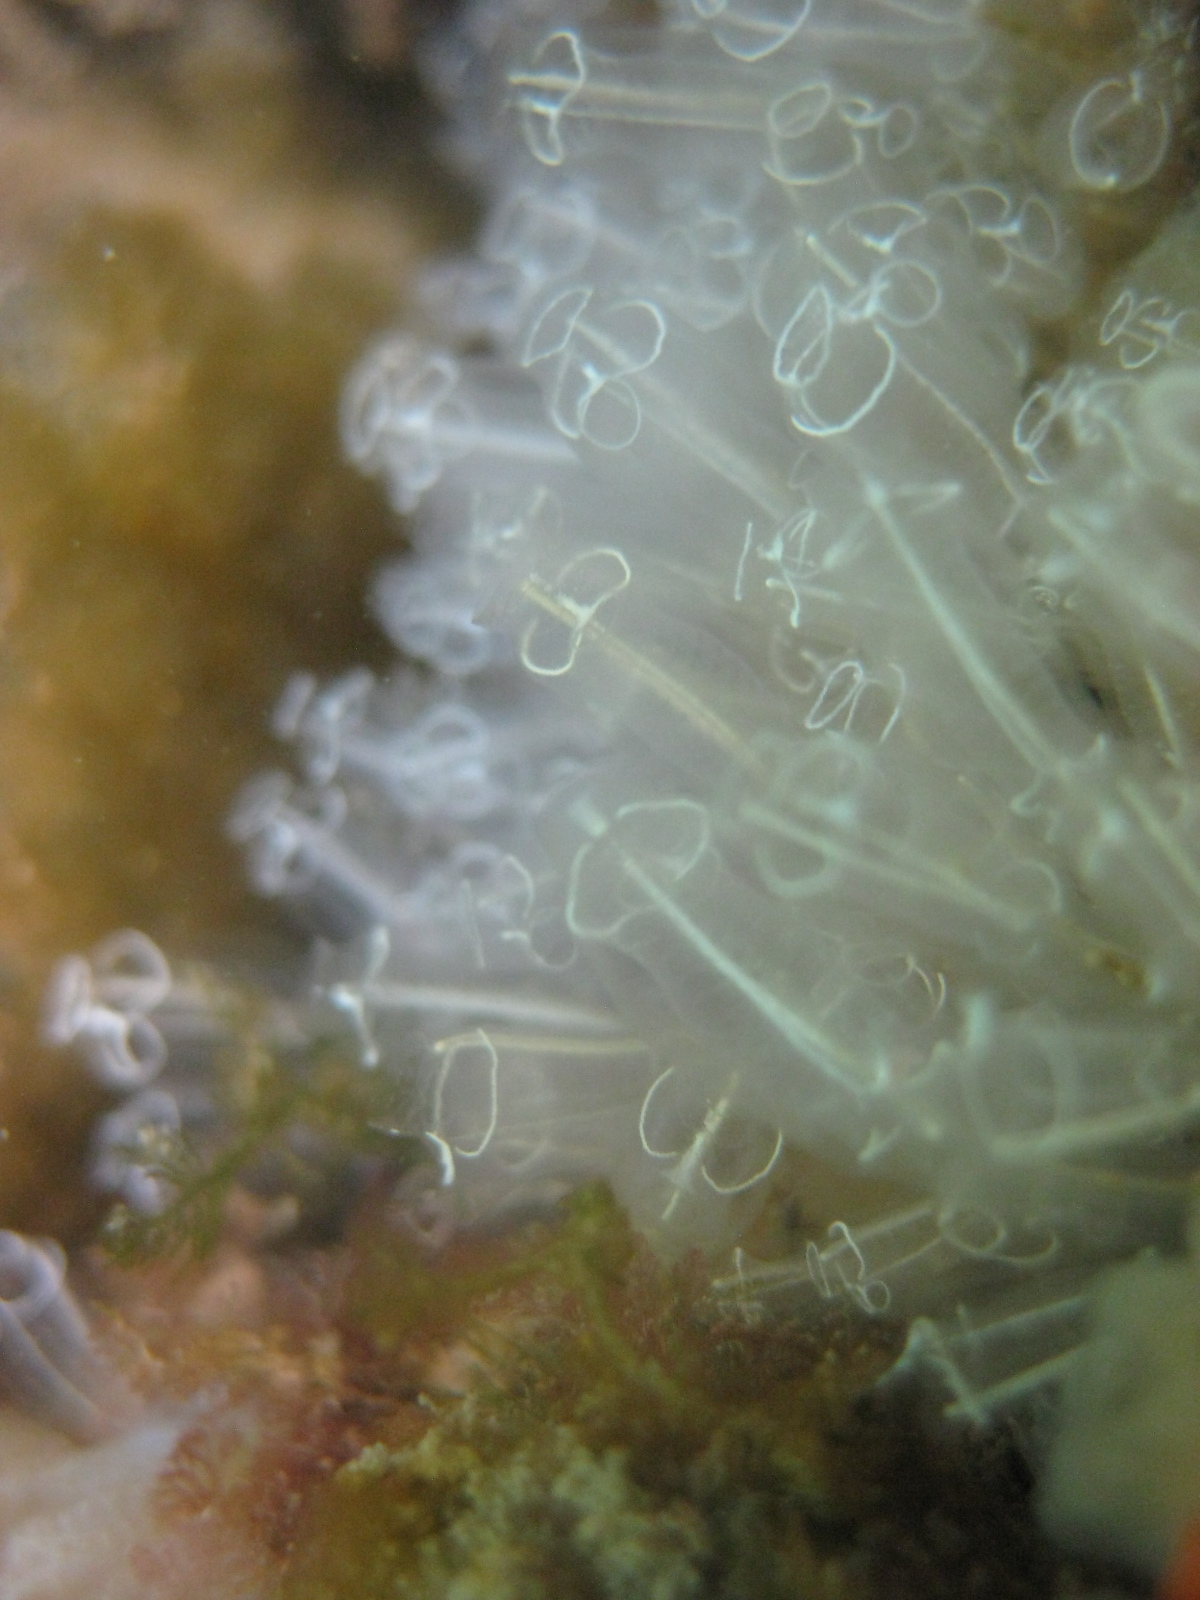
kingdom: Animalia
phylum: Chordata
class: Ascidiacea
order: Aplousobranchia
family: Clavelinidae
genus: Clavelina
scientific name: Clavelina lepadiformis
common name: Light bulb tunicate
